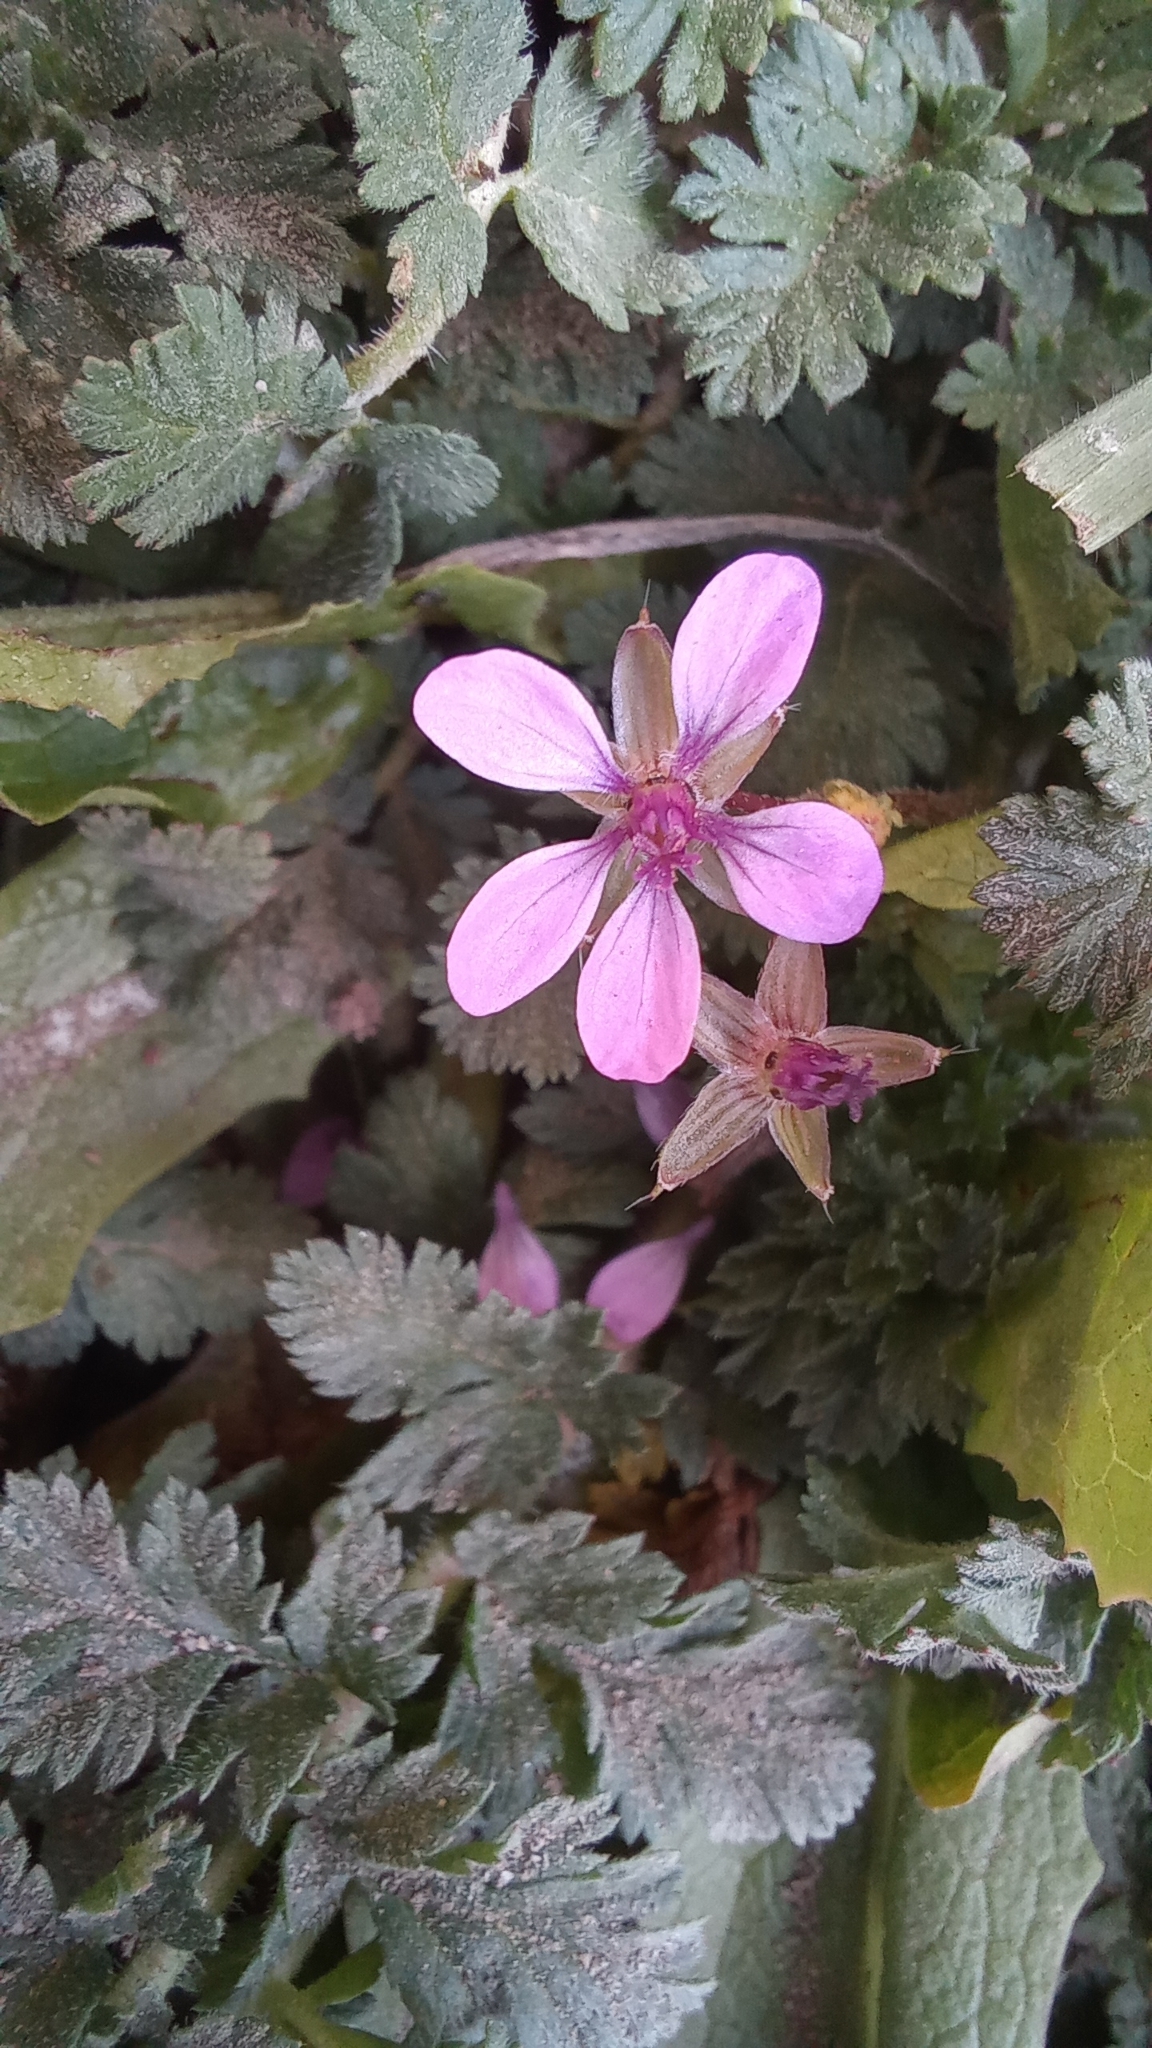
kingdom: Plantae
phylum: Tracheophyta
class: Magnoliopsida
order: Geraniales
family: Geraniaceae
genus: Erodium
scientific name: Erodium cicutarium
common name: Common stork's-bill
